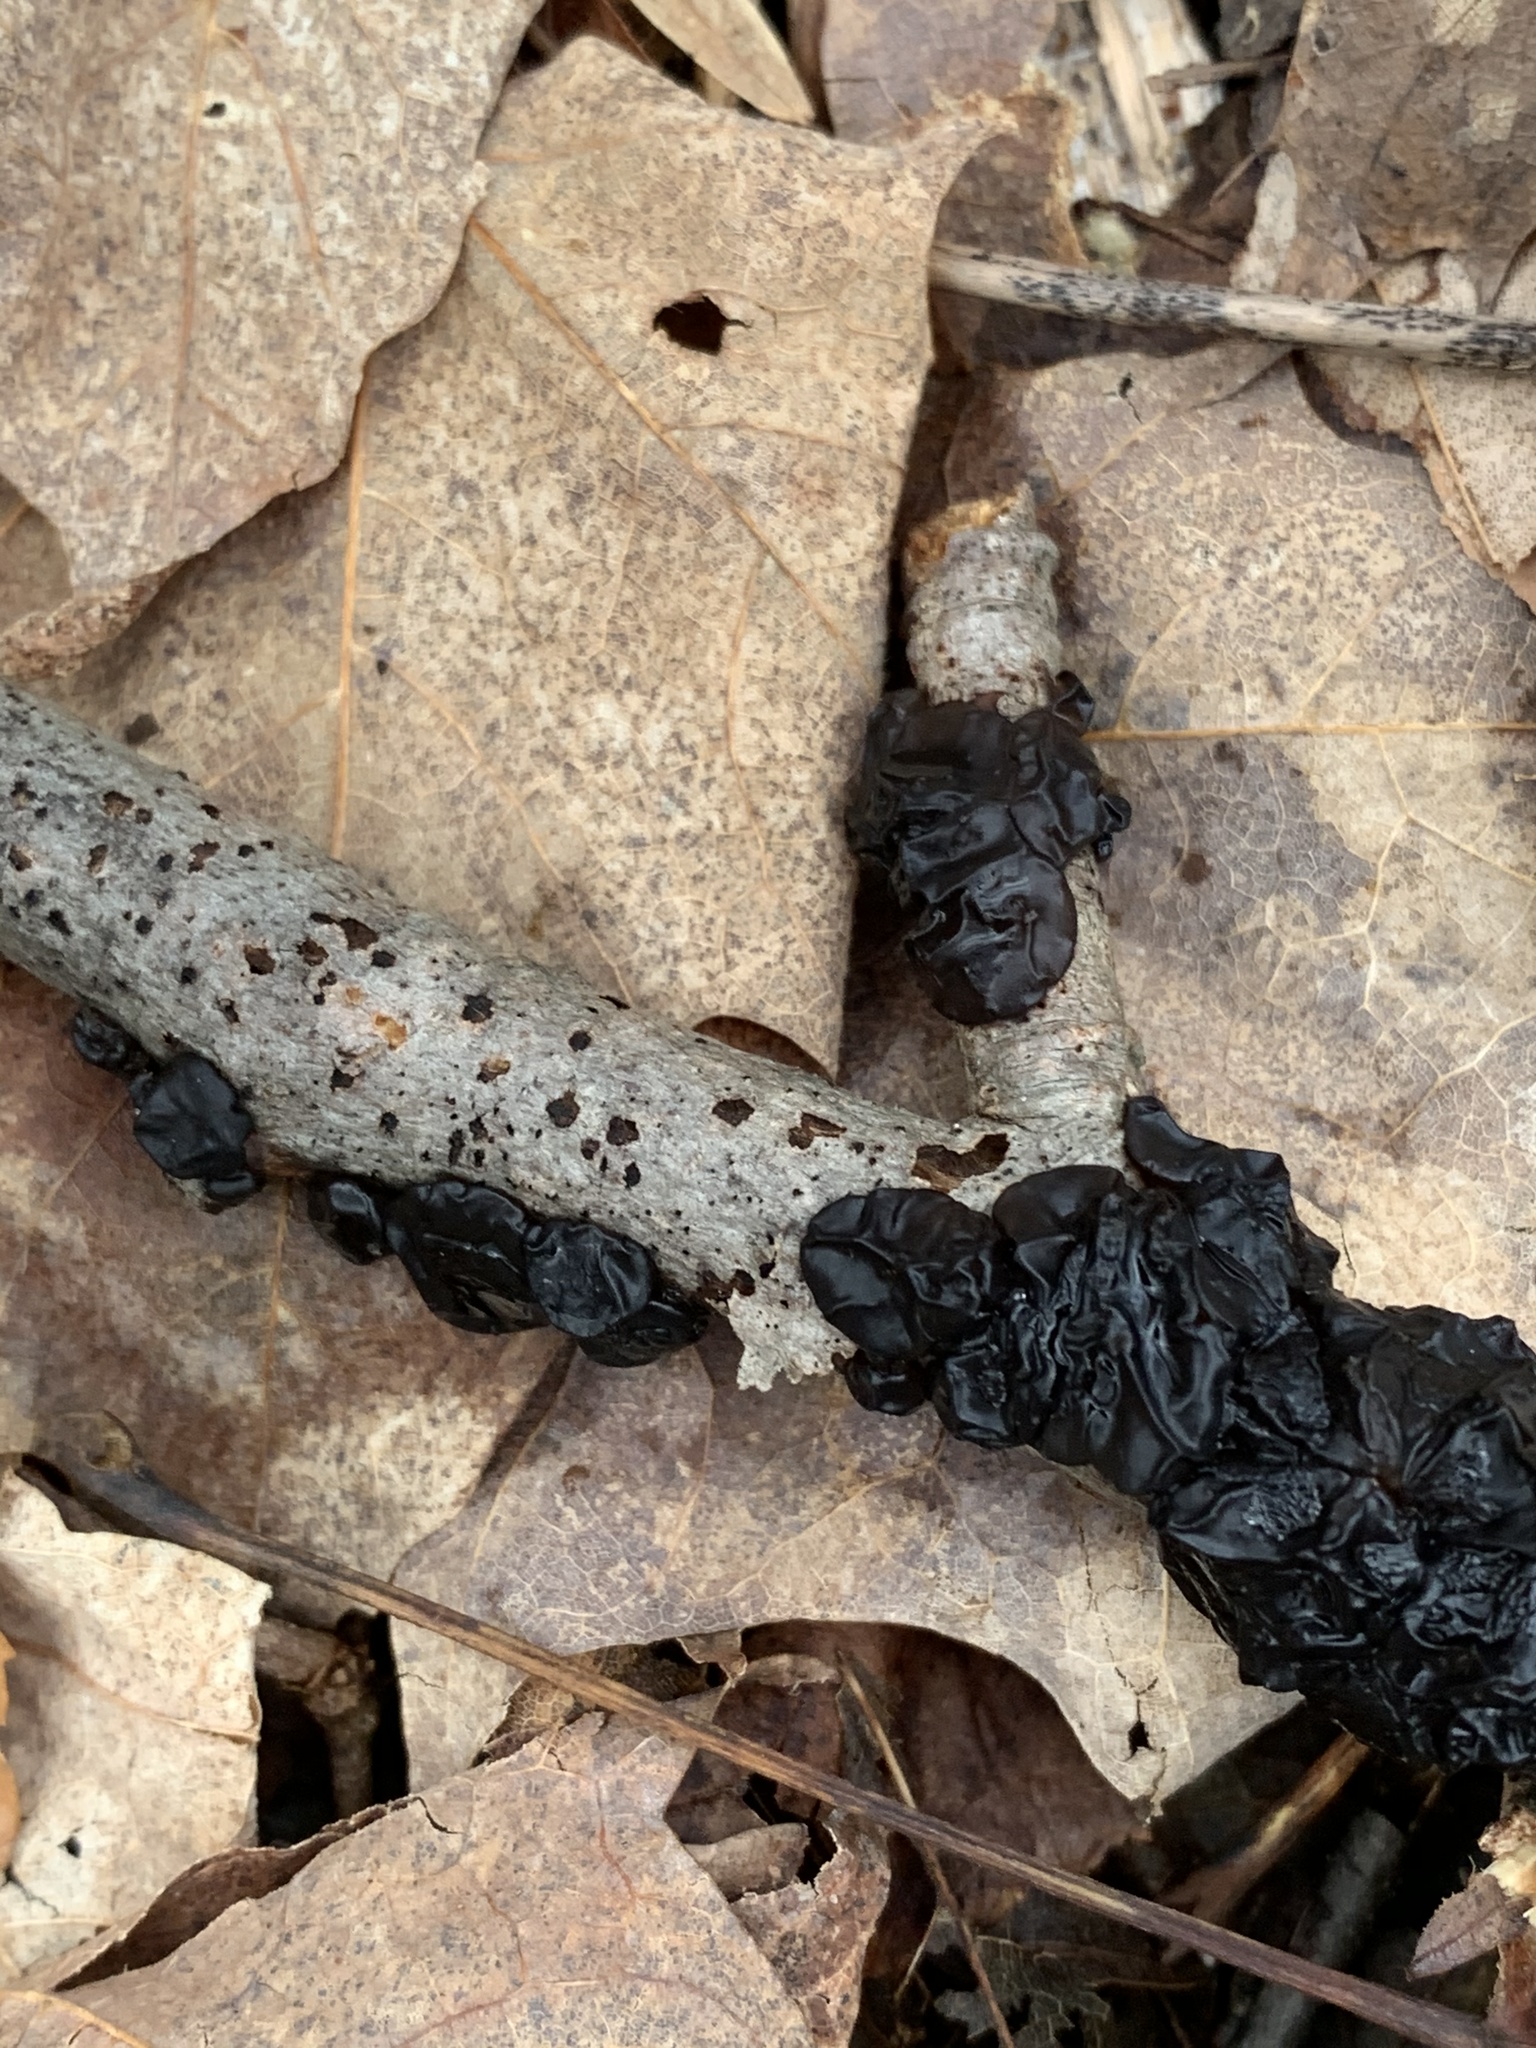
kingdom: Fungi
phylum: Basidiomycota
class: Agaricomycetes
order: Auriculariales
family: Auriculariaceae
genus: Exidia
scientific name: Exidia glandulosa
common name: Witches' butter
